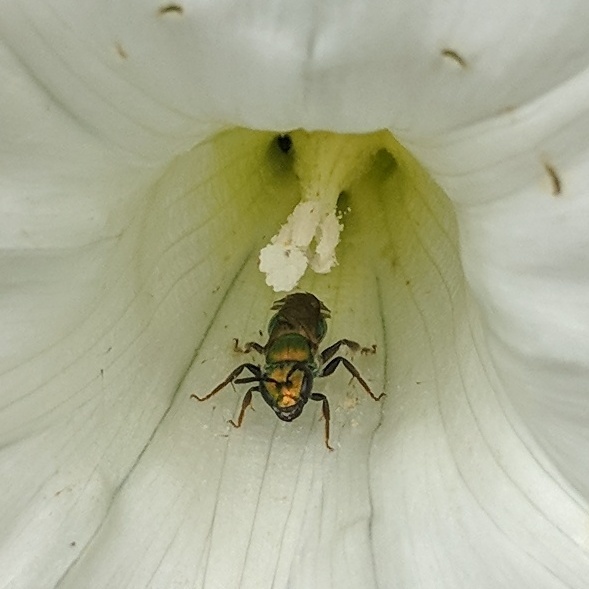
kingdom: Animalia
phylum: Arthropoda
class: Insecta
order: Hymenoptera
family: Halictidae
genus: Augochlora
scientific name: Augochlora pura
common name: Pure green sweat bee
